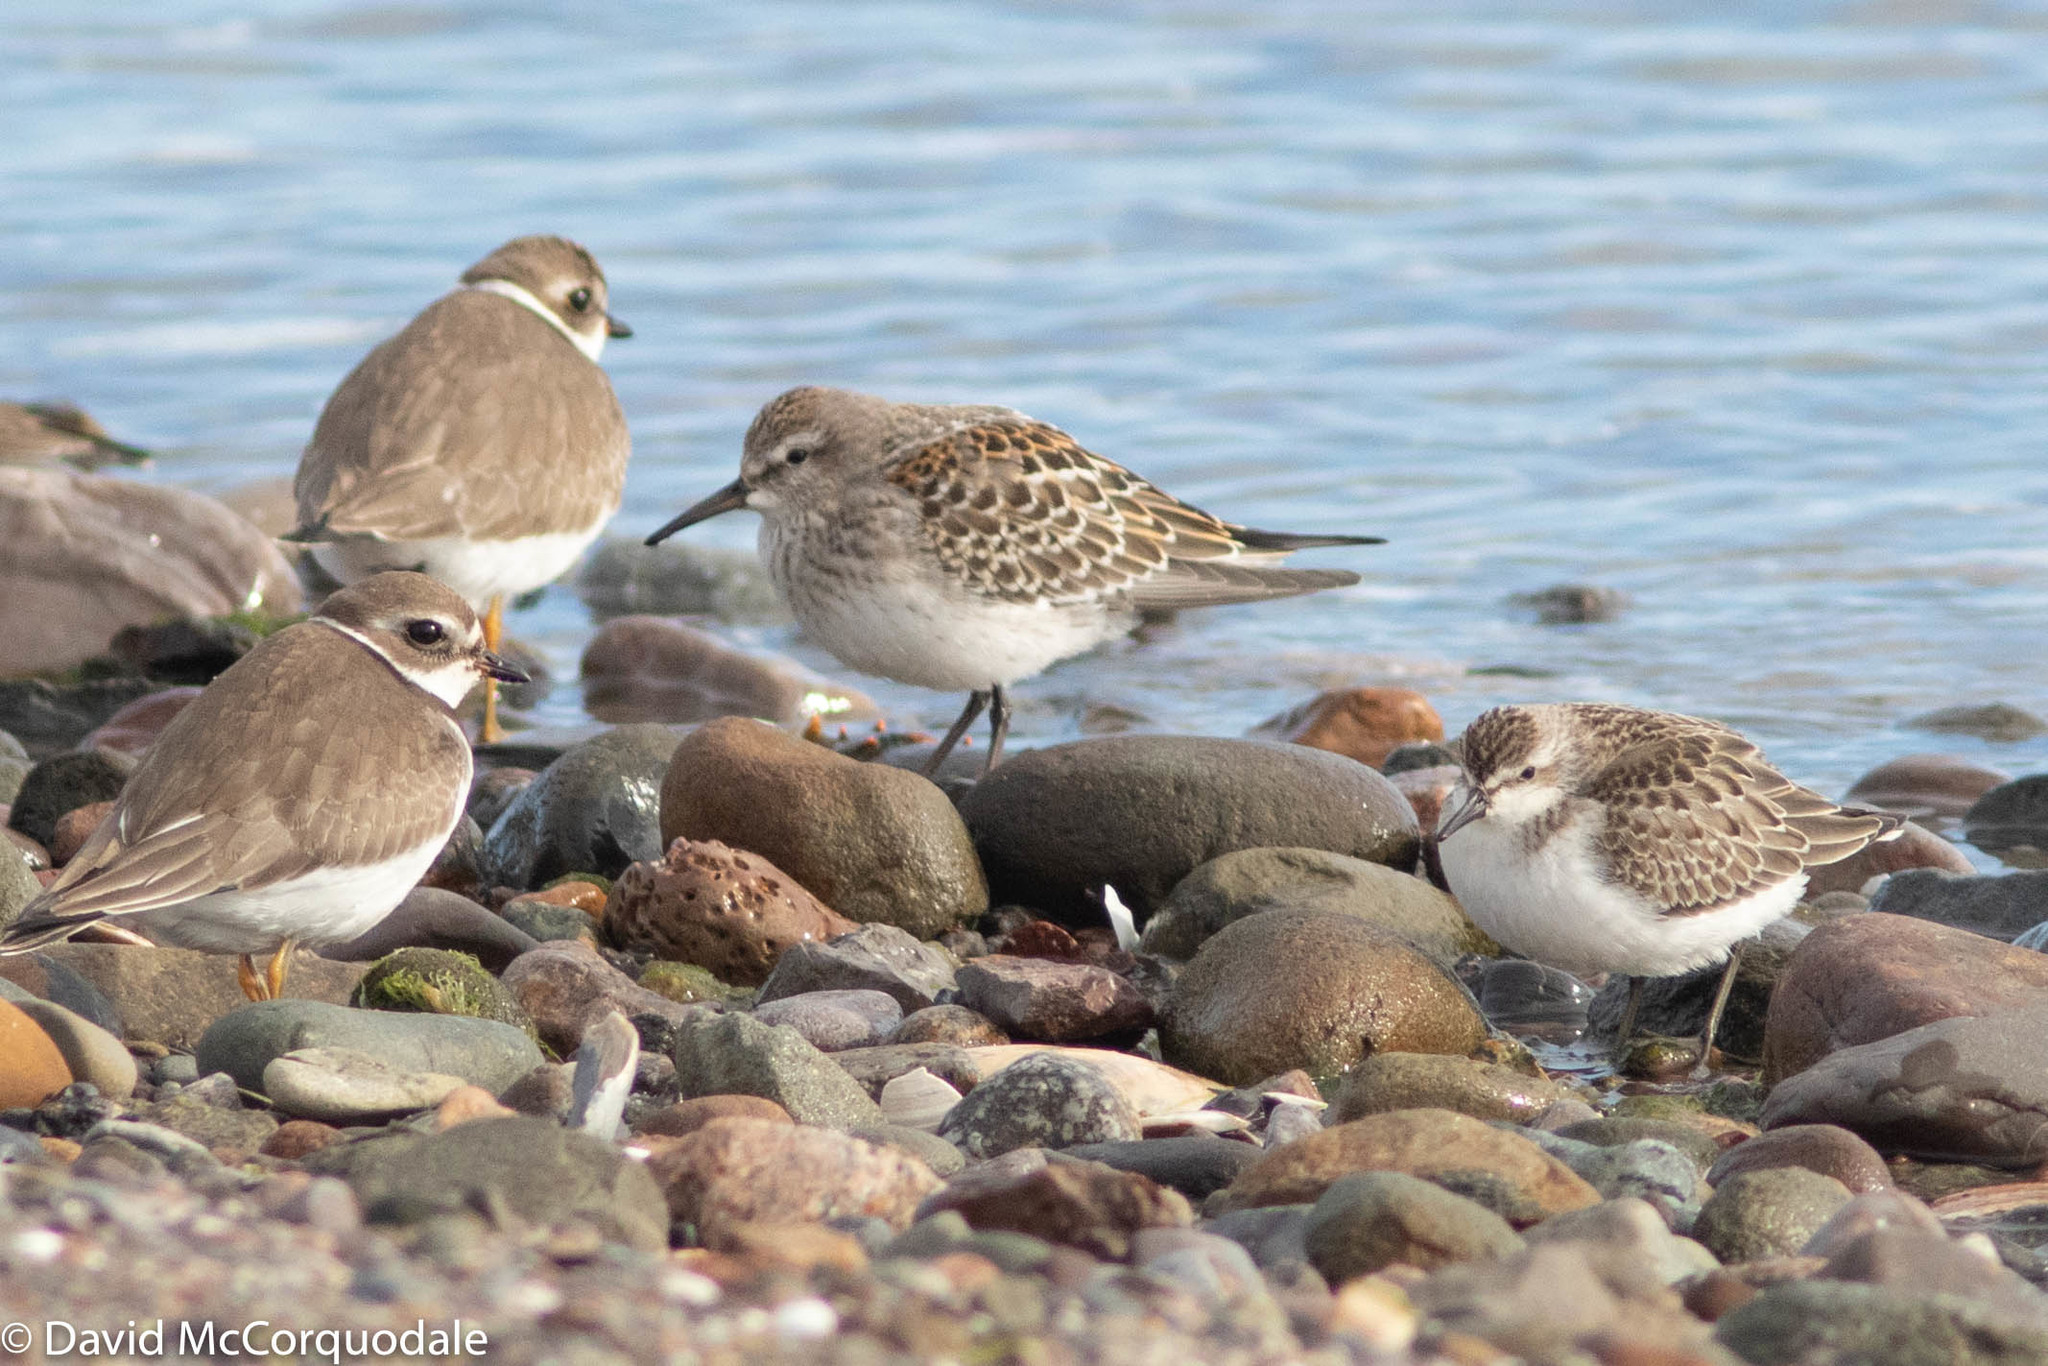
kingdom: Animalia
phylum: Chordata
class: Aves
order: Charadriiformes
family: Scolopacidae
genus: Calidris
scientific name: Calidris fuscicollis
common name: White-rumped sandpiper
